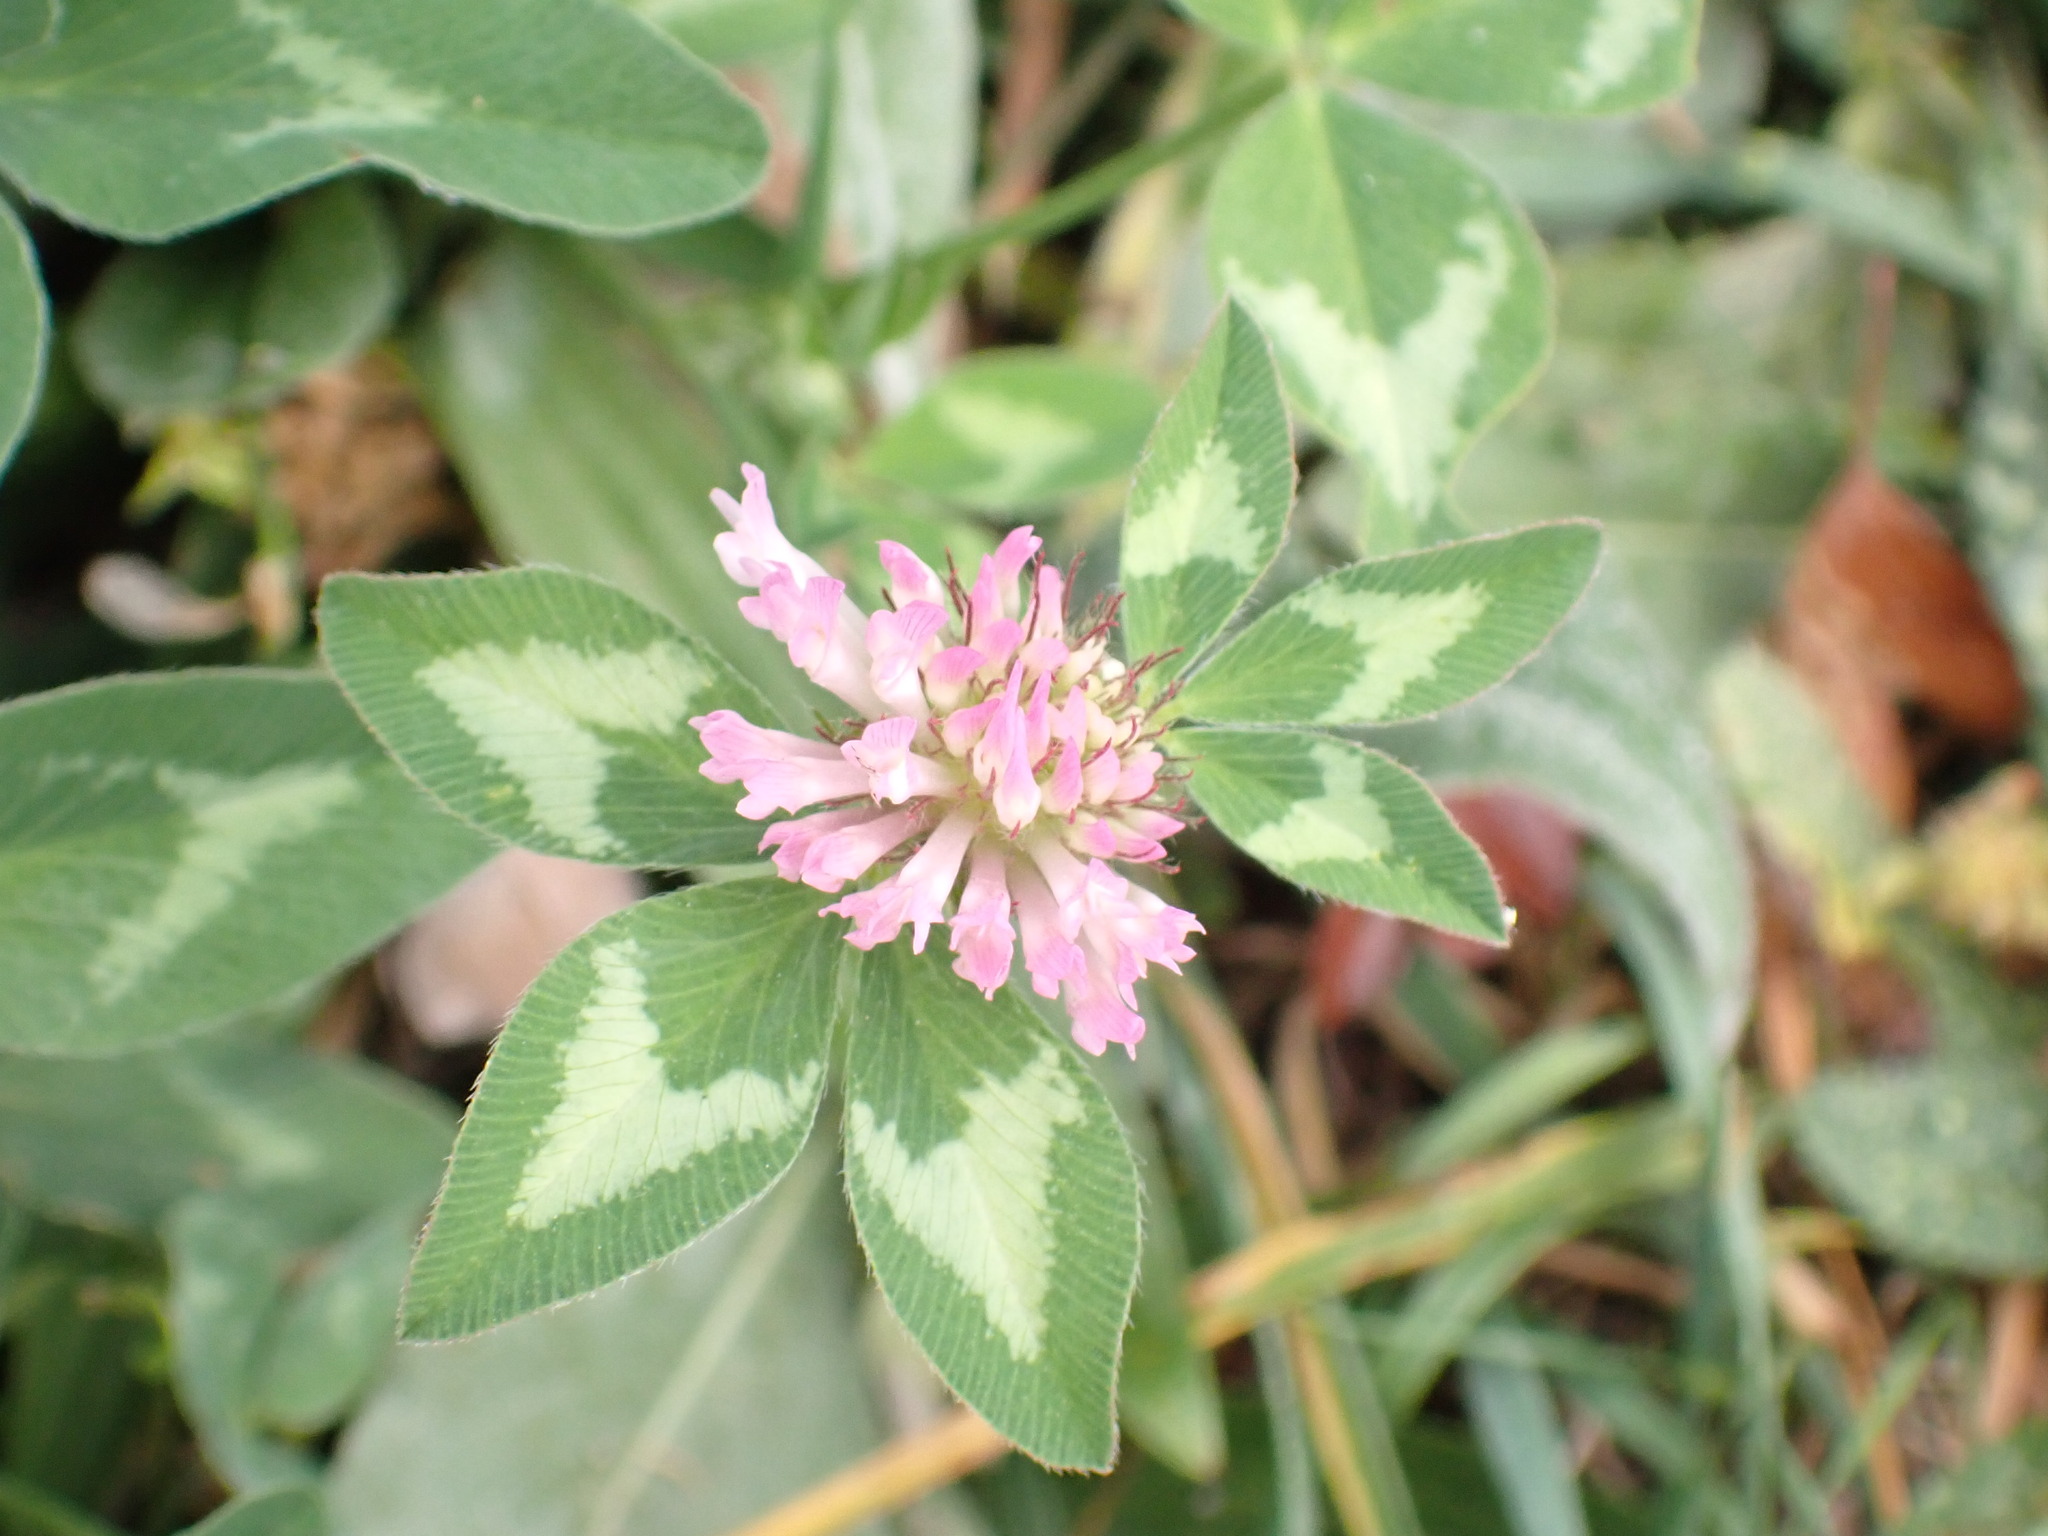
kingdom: Plantae
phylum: Tracheophyta
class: Magnoliopsida
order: Fabales
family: Fabaceae
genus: Trifolium
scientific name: Trifolium pratense
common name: Red clover
